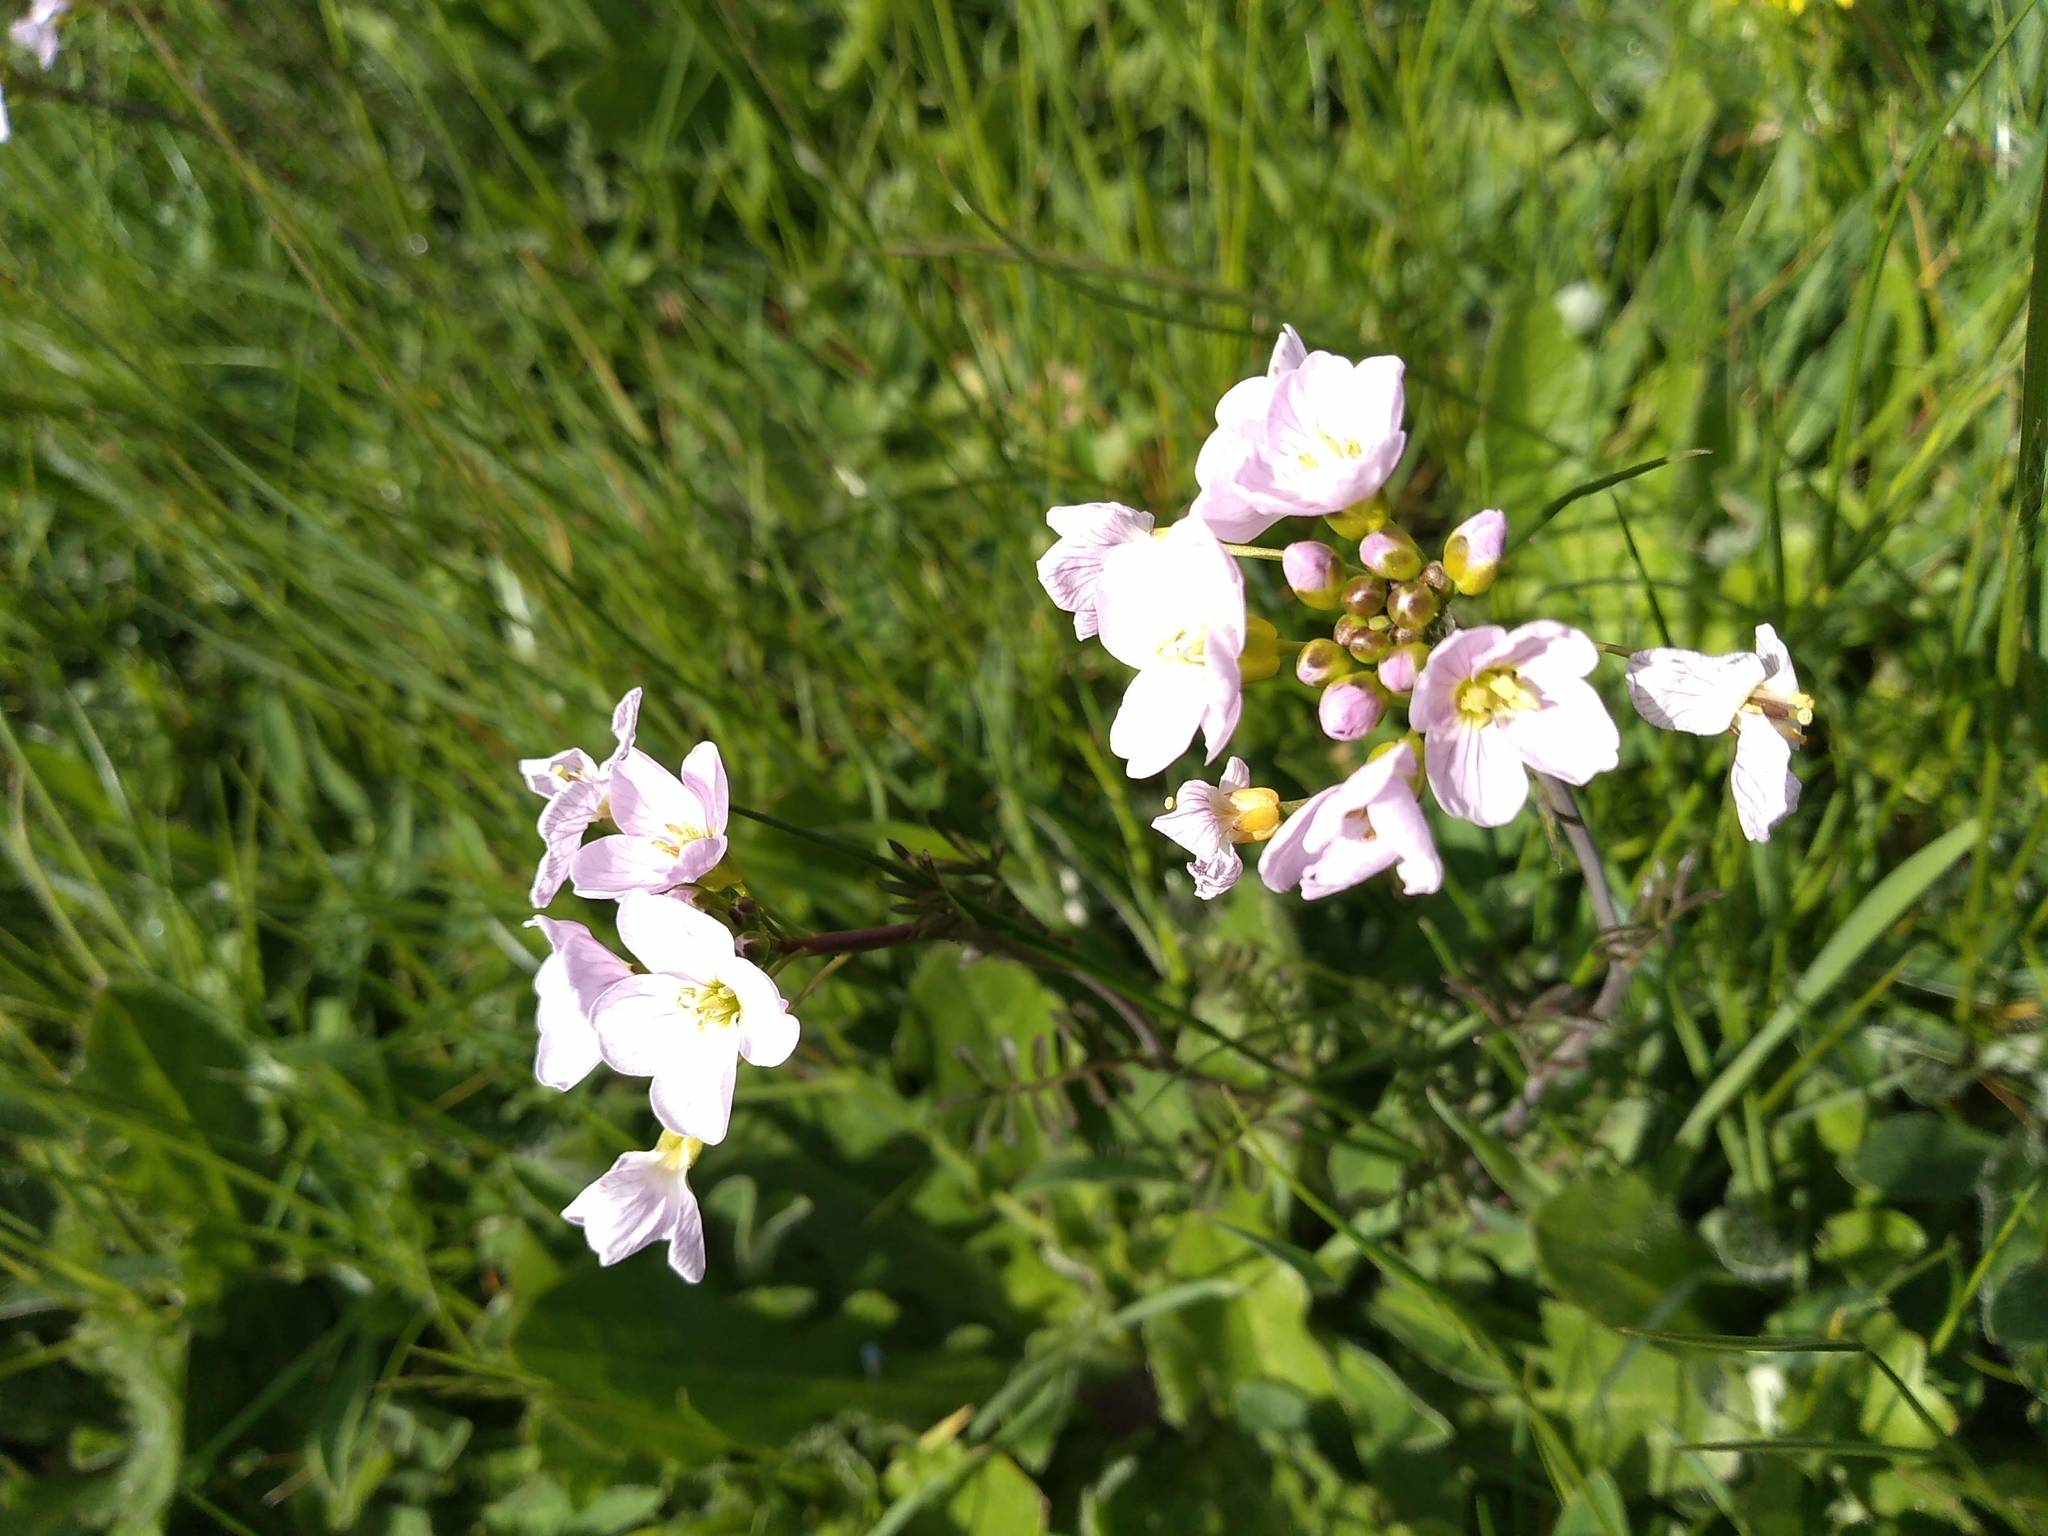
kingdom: Plantae
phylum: Tracheophyta
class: Magnoliopsida
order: Brassicales
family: Brassicaceae
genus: Cardamine
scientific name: Cardamine pratensis
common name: Cuckoo flower
